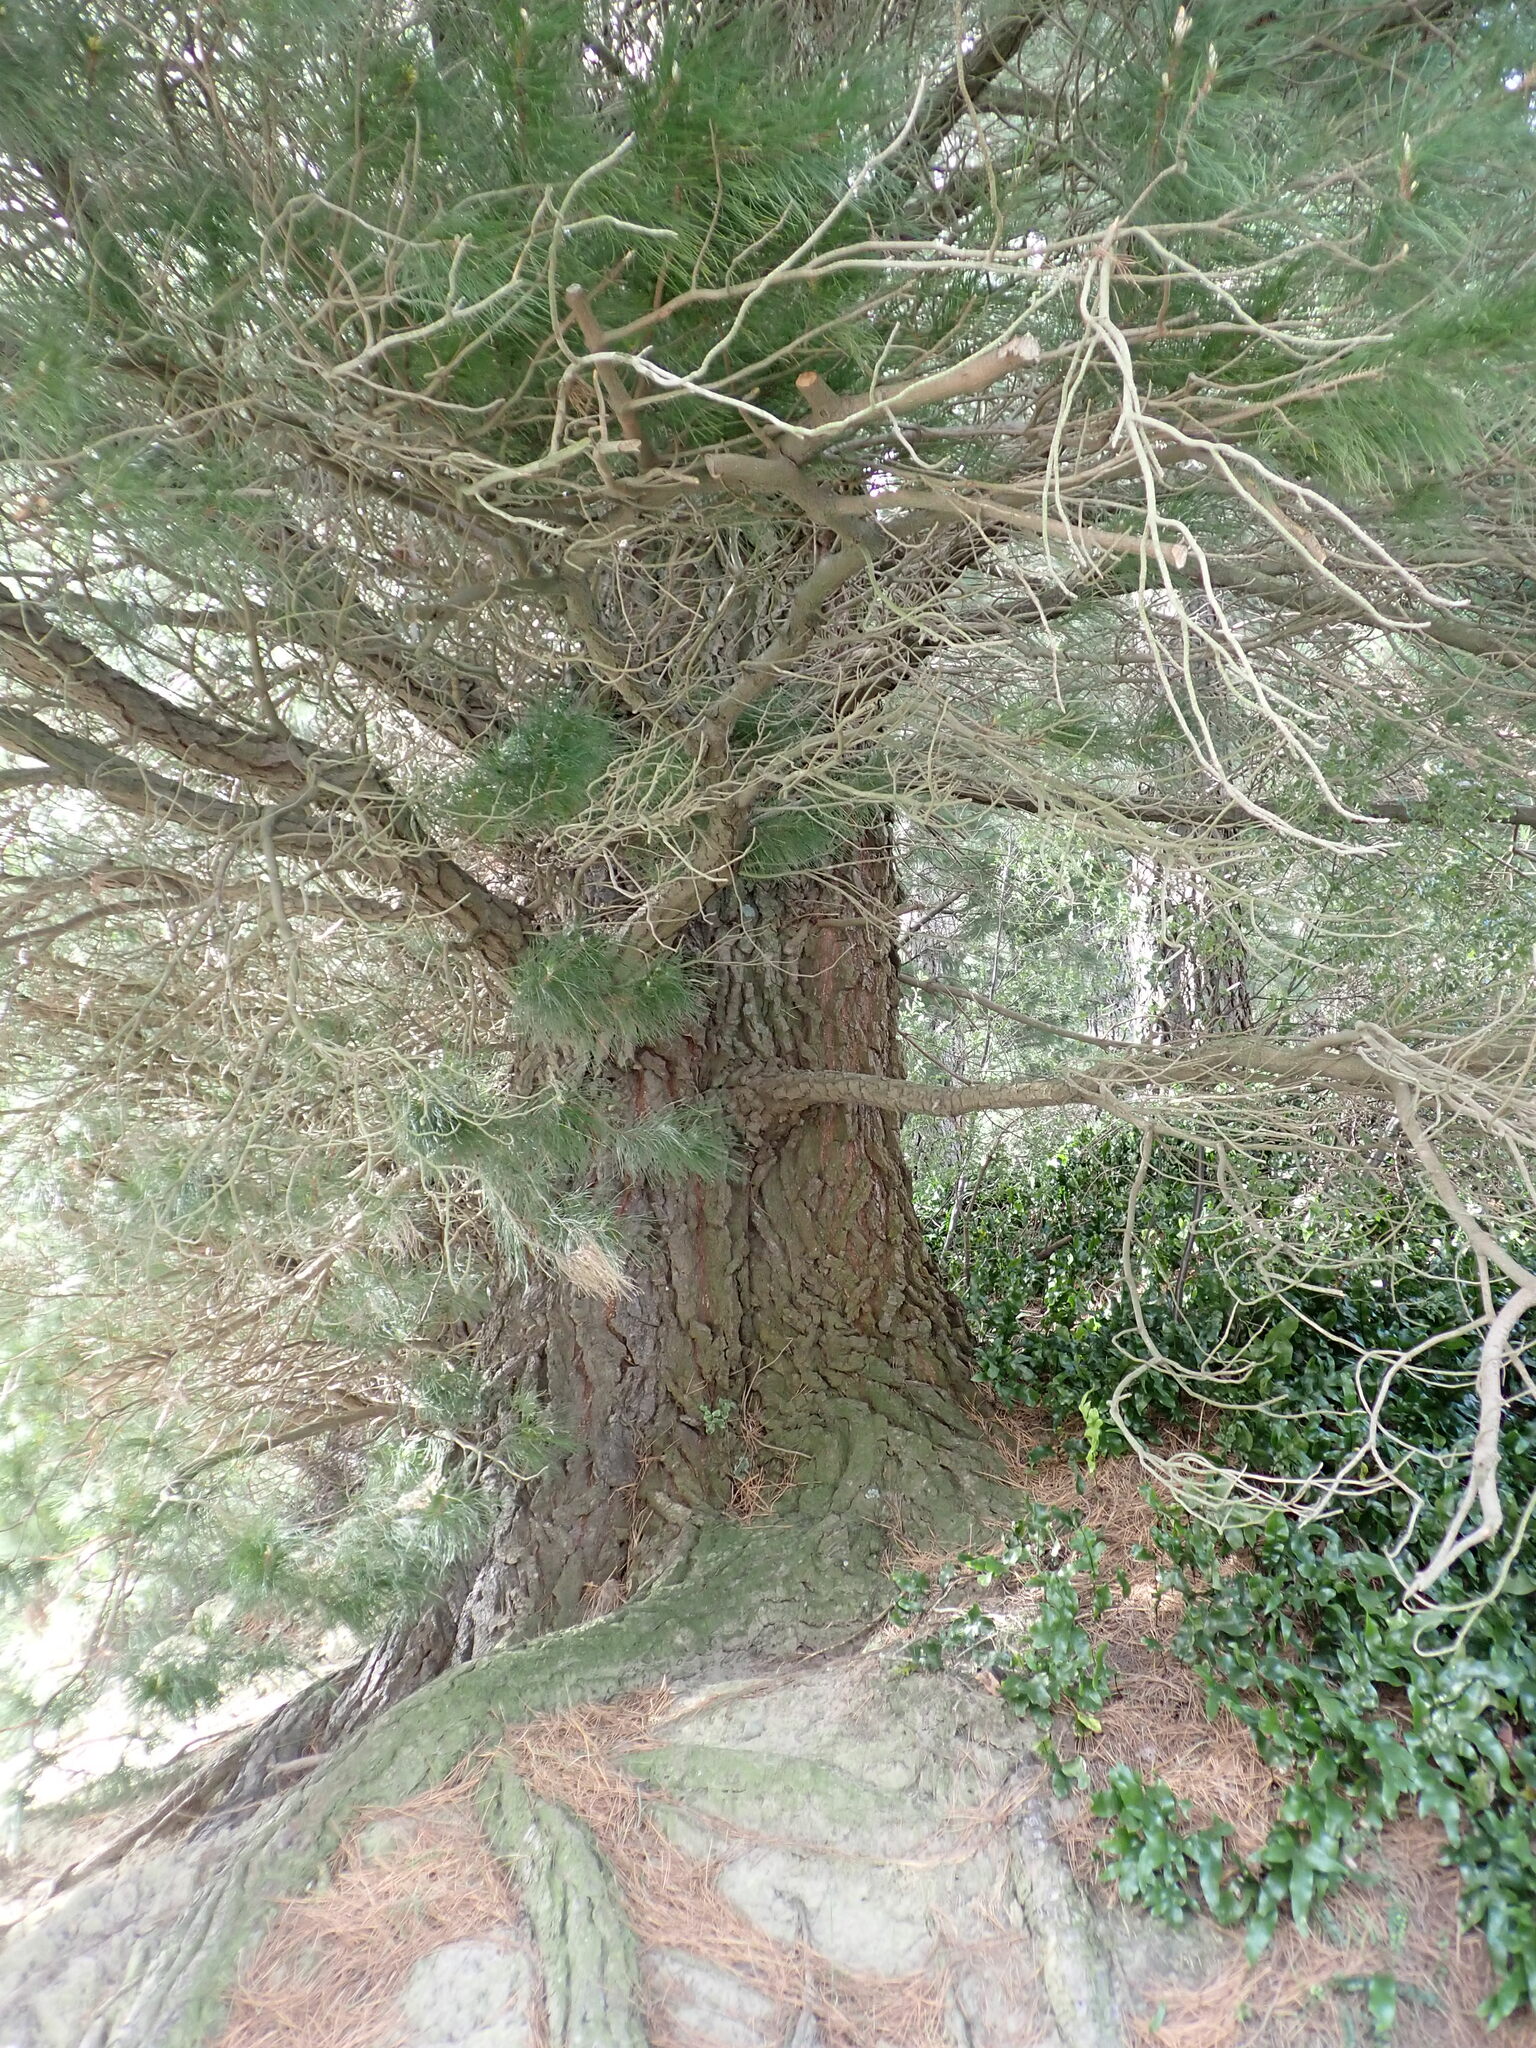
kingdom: Plantae
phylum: Tracheophyta
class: Pinopsida
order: Pinales
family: Pinaceae
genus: Pinus
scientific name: Pinus radiata
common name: Monterey pine
